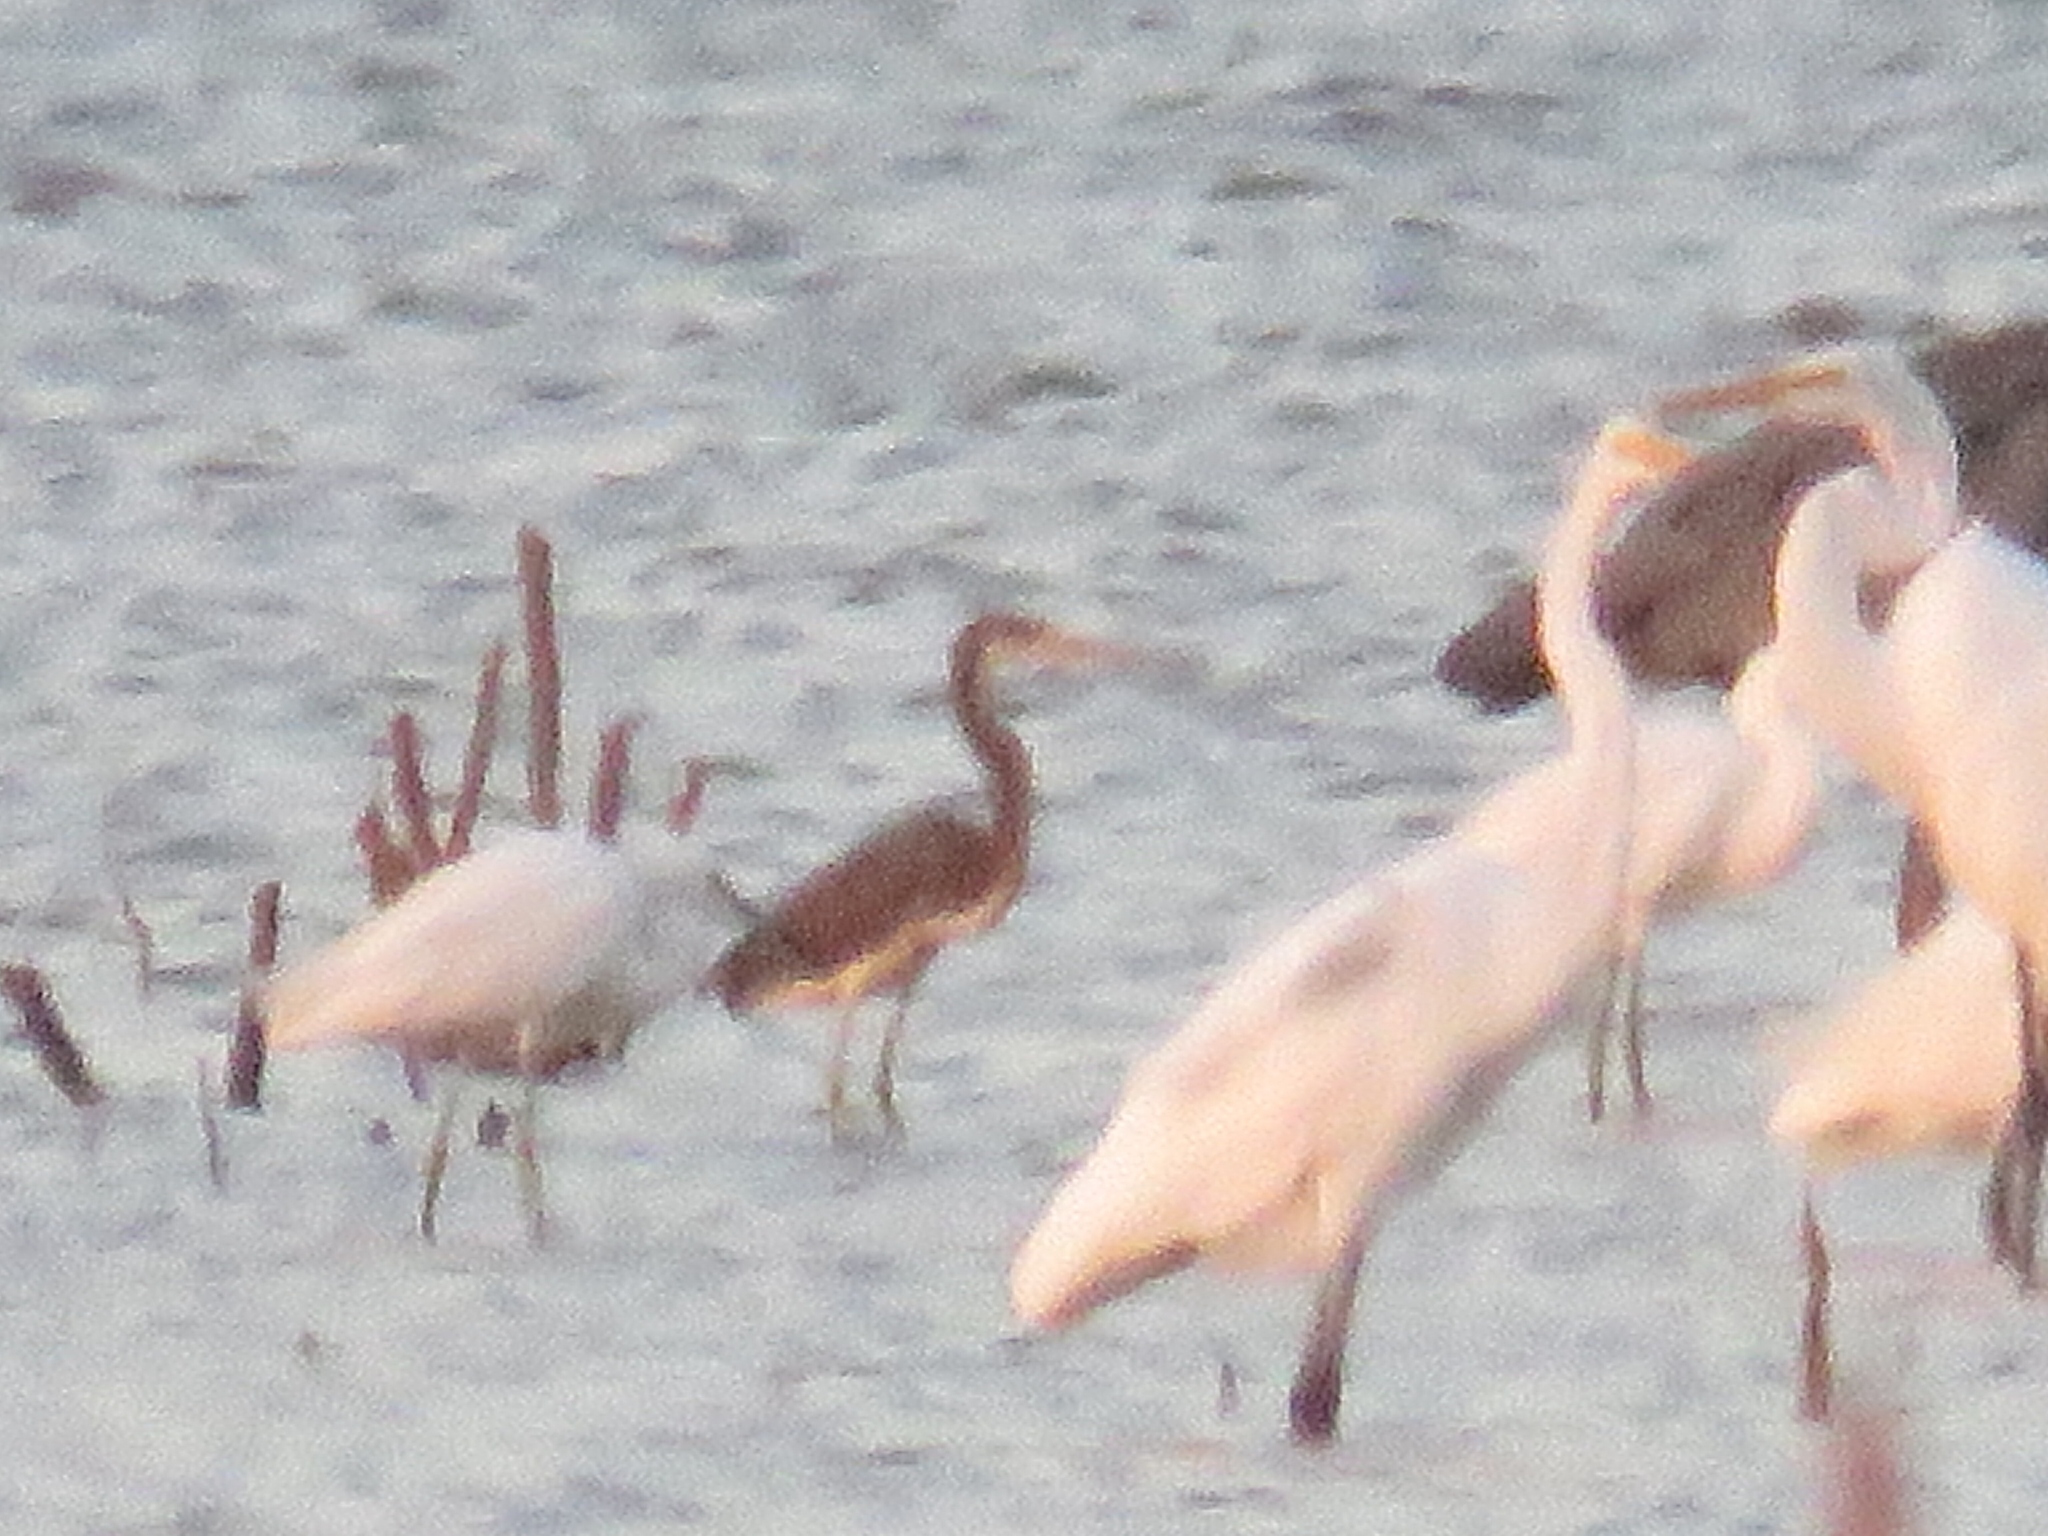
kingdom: Animalia
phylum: Chordata
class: Aves
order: Pelecaniformes
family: Ardeidae
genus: Egretta
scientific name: Egretta tricolor
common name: Tricolored heron
